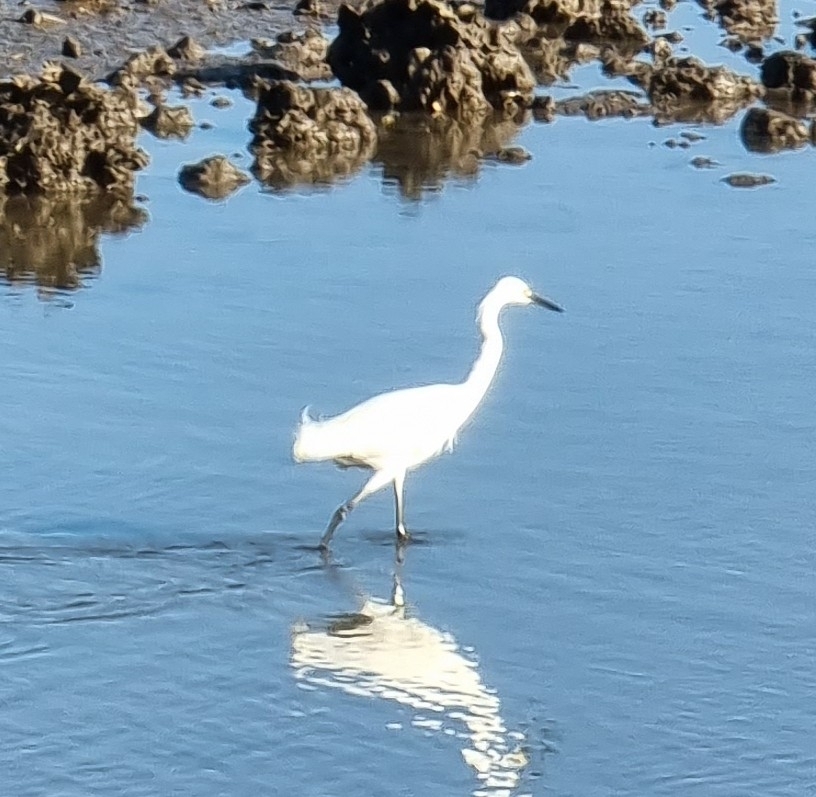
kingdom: Animalia
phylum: Chordata
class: Aves
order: Pelecaniformes
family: Ardeidae
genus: Egretta
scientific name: Egretta garzetta
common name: Little egret
